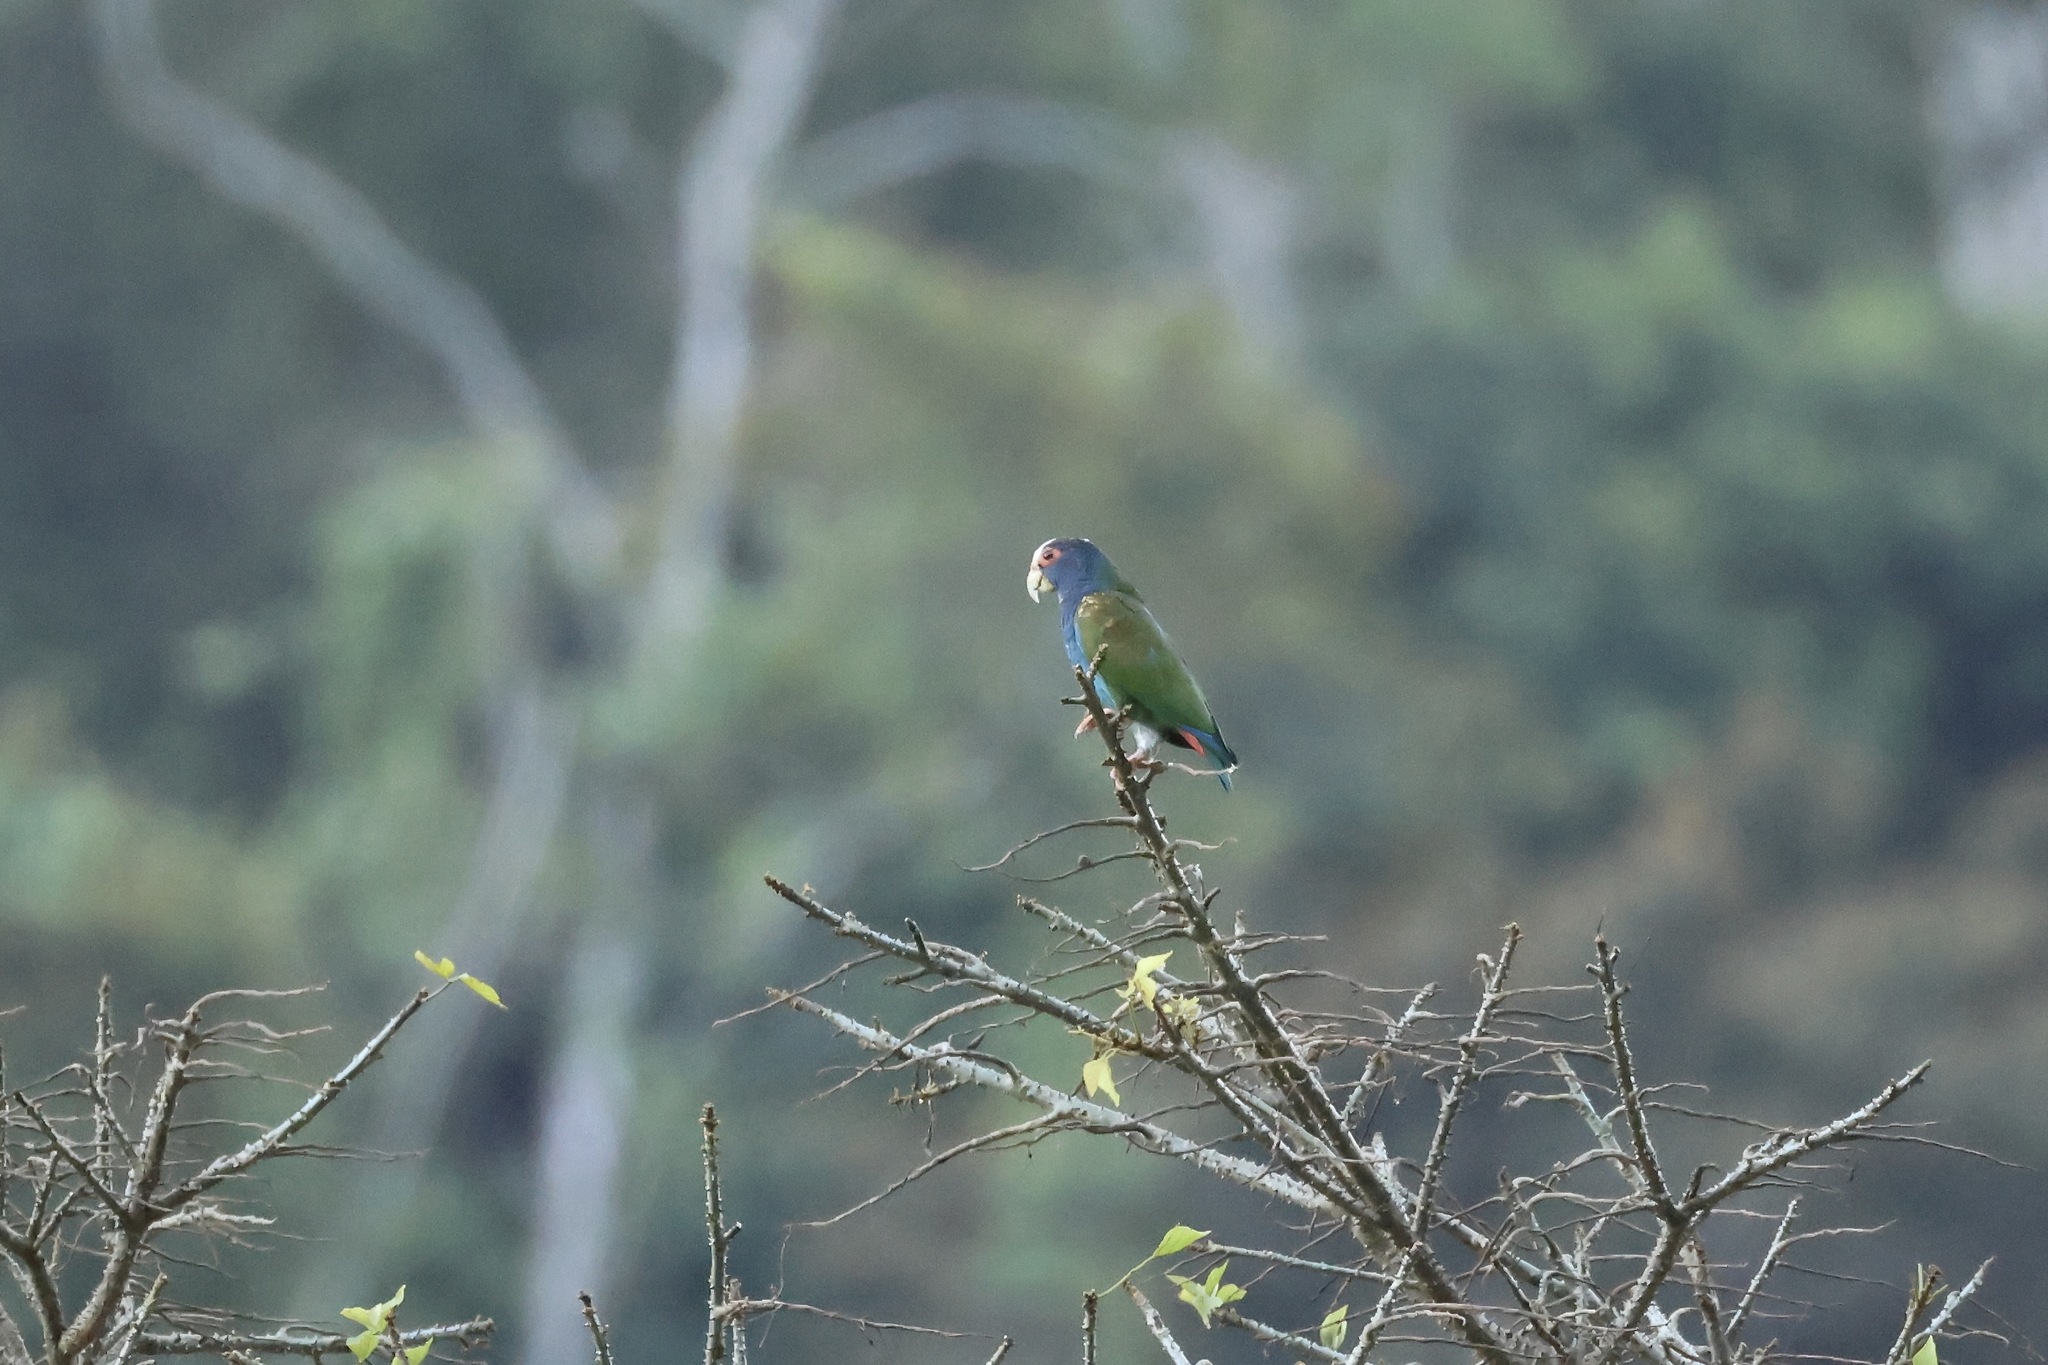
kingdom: Animalia
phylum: Chordata
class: Aves
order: Psittaciformes
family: Psittacidae
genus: Pionus
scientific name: Pionus senilis
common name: White-crowned parrot
